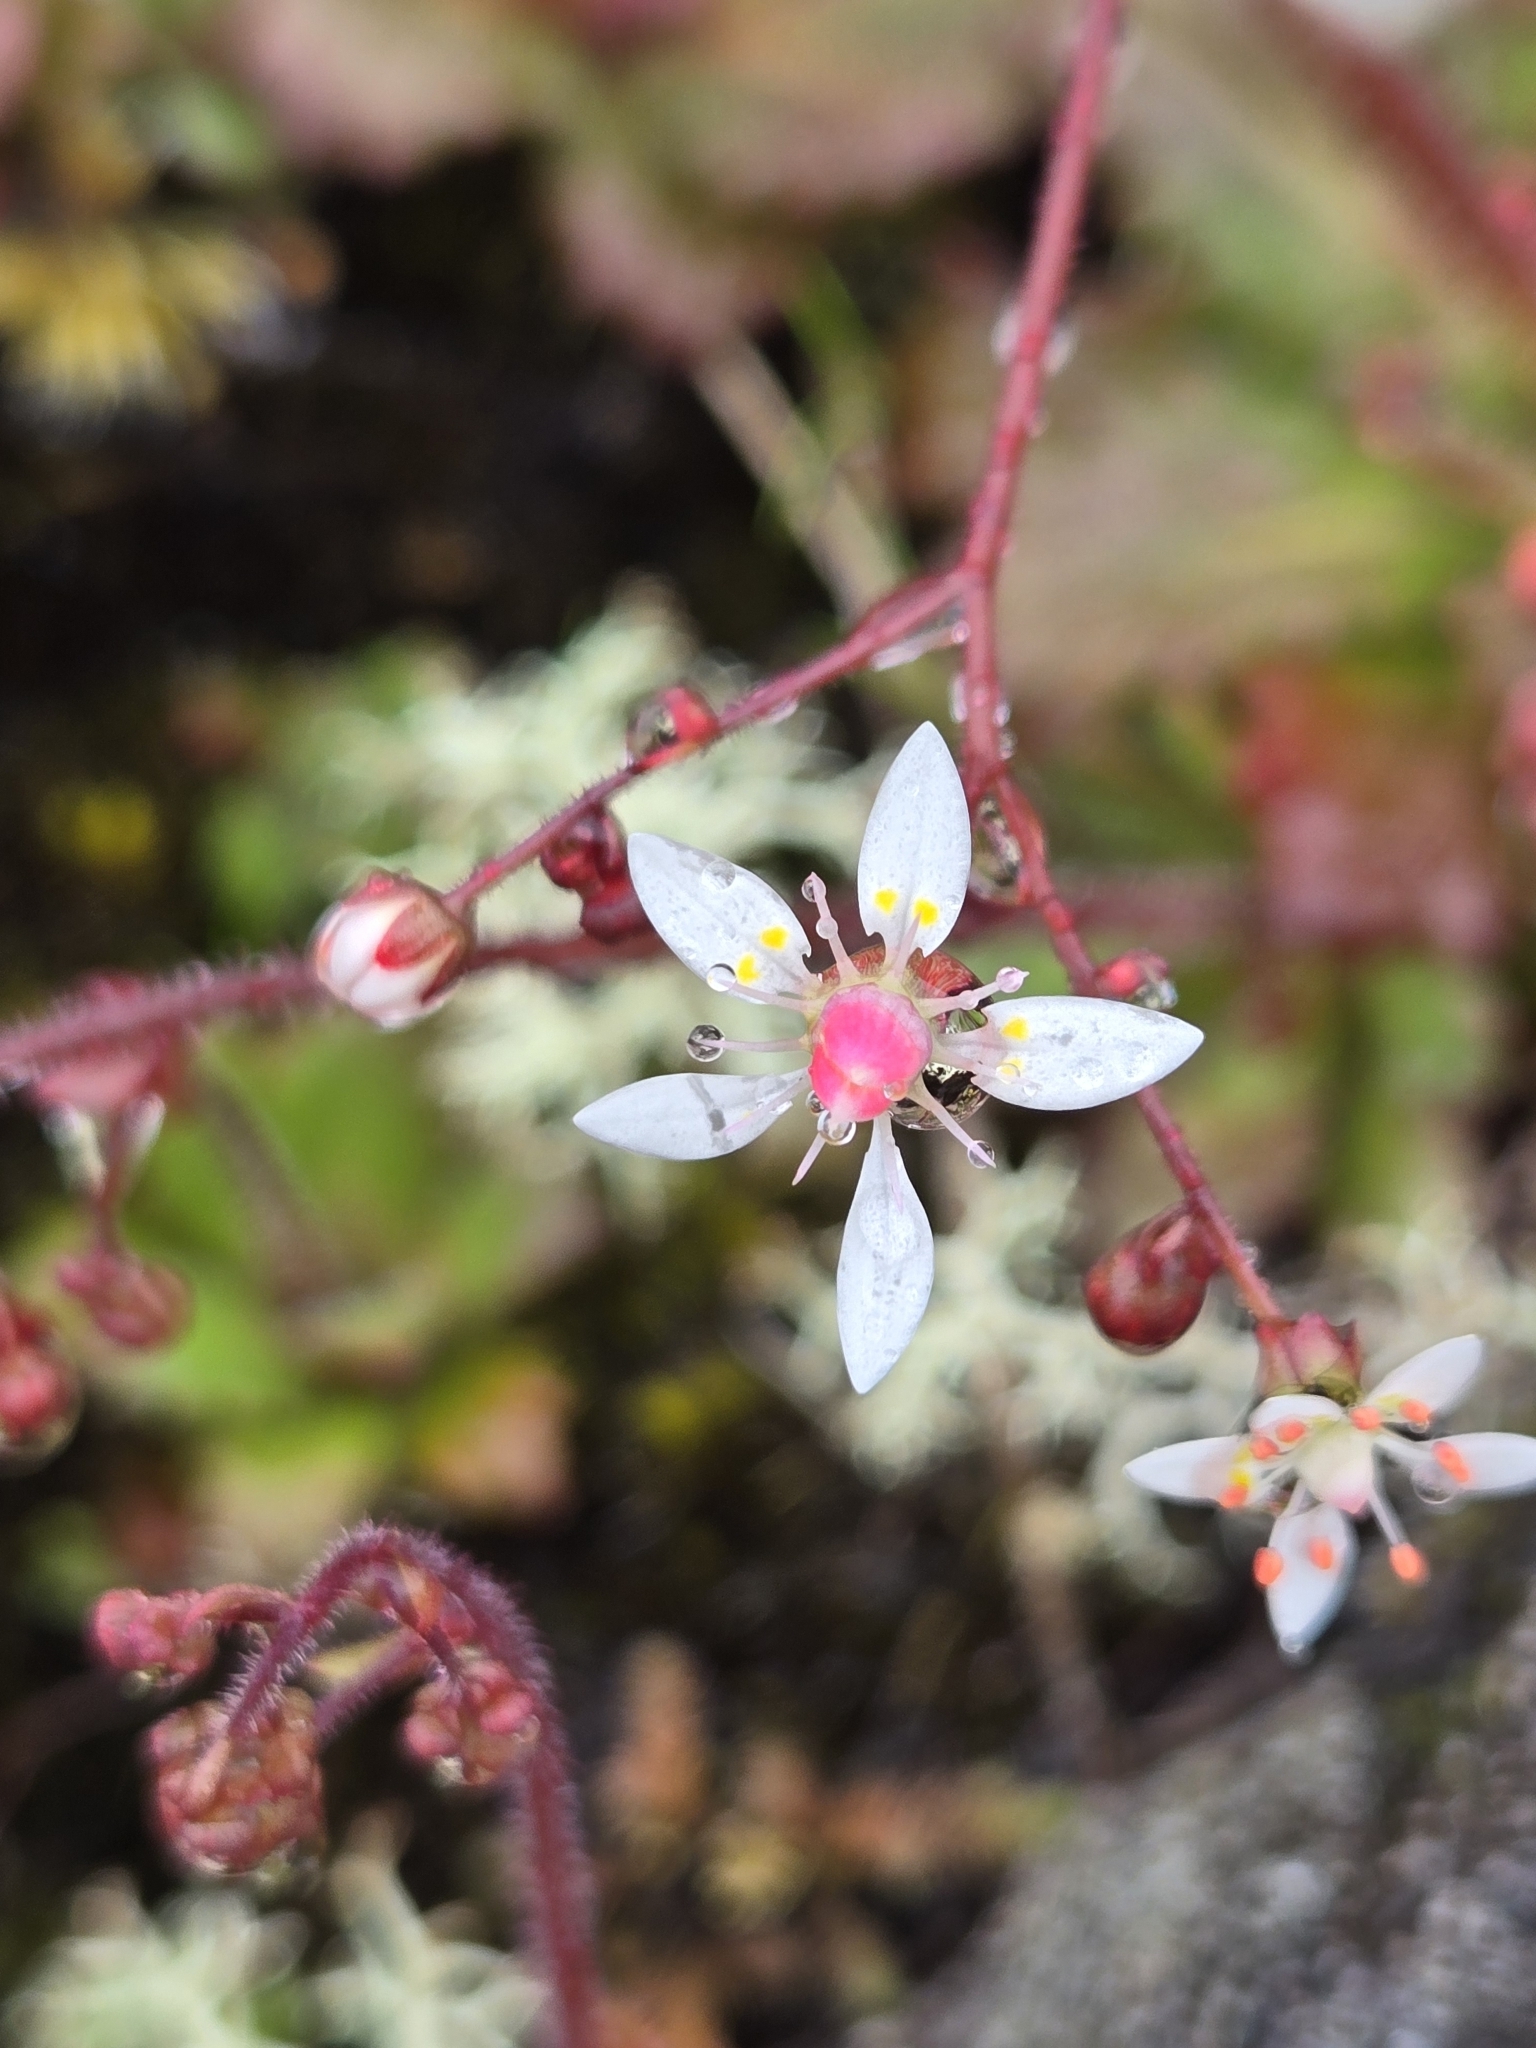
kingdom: Plantae
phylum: Tracheophyta
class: Magnoliopsida
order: Saxifragales
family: Saxifragaceae
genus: Micranthes
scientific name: Micranthes ferruginea
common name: Rusty saxifrage
